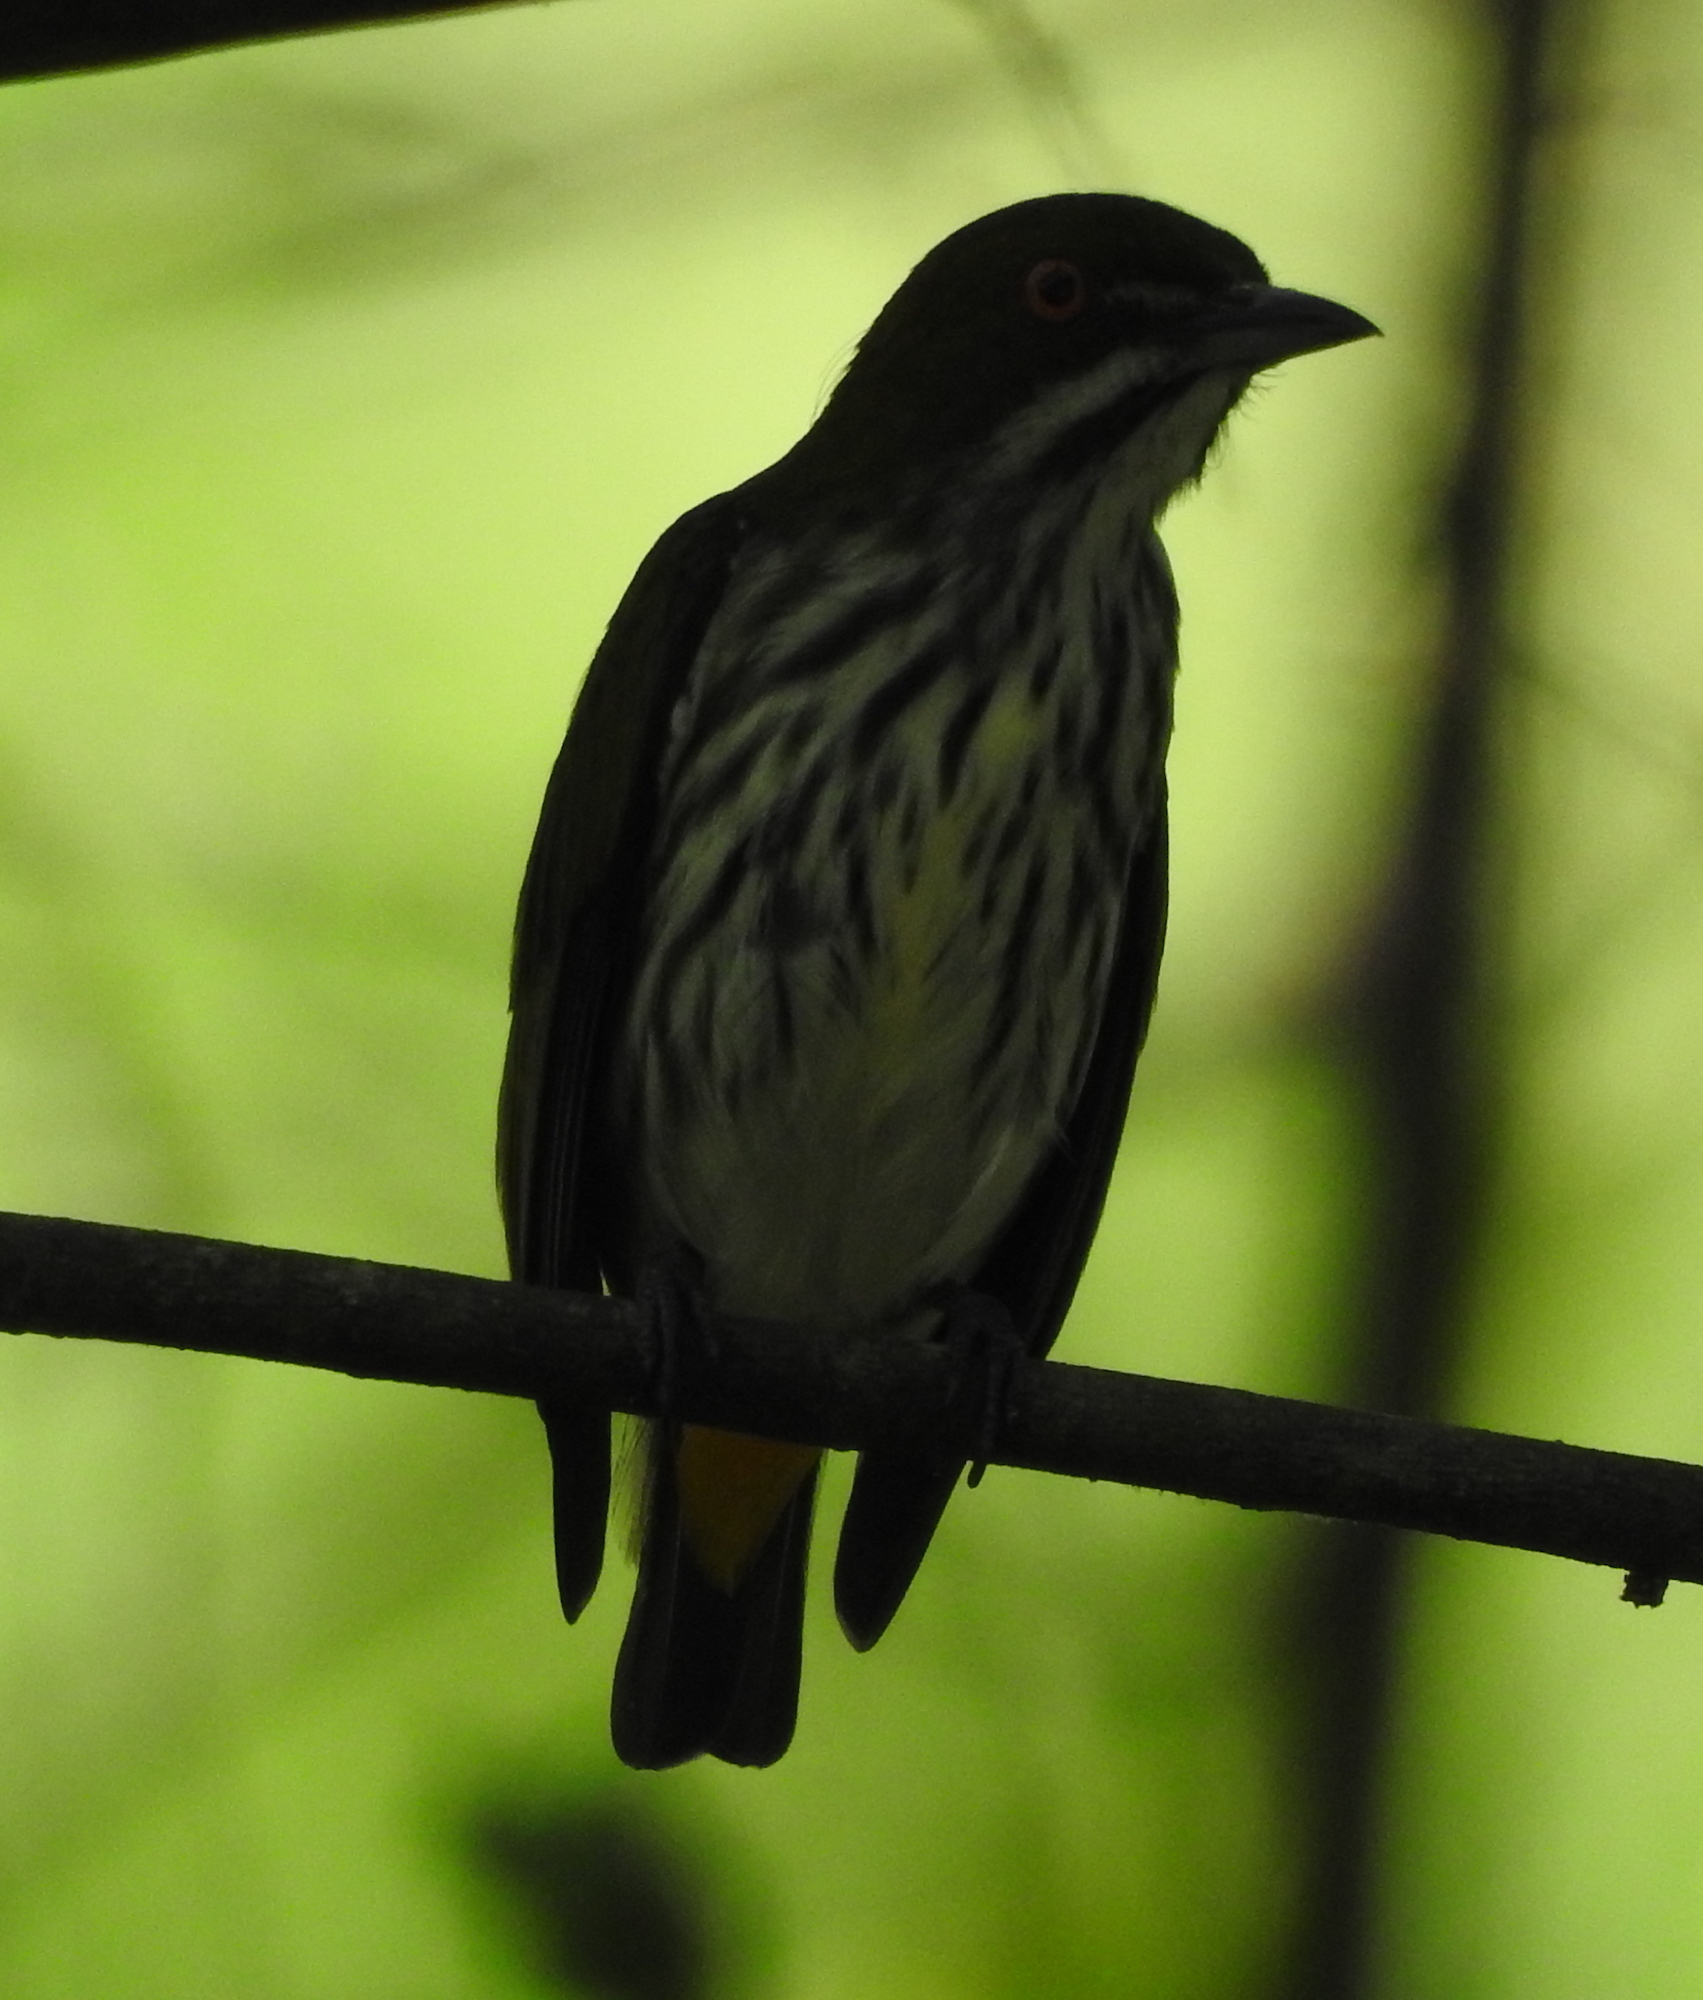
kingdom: Animalia
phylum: Chordata
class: Aves
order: Passeriformes
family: Dicaeidae
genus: Dicaeum
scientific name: Dicaeum chrysorrheum
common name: Yellow-vented flowerpecker
